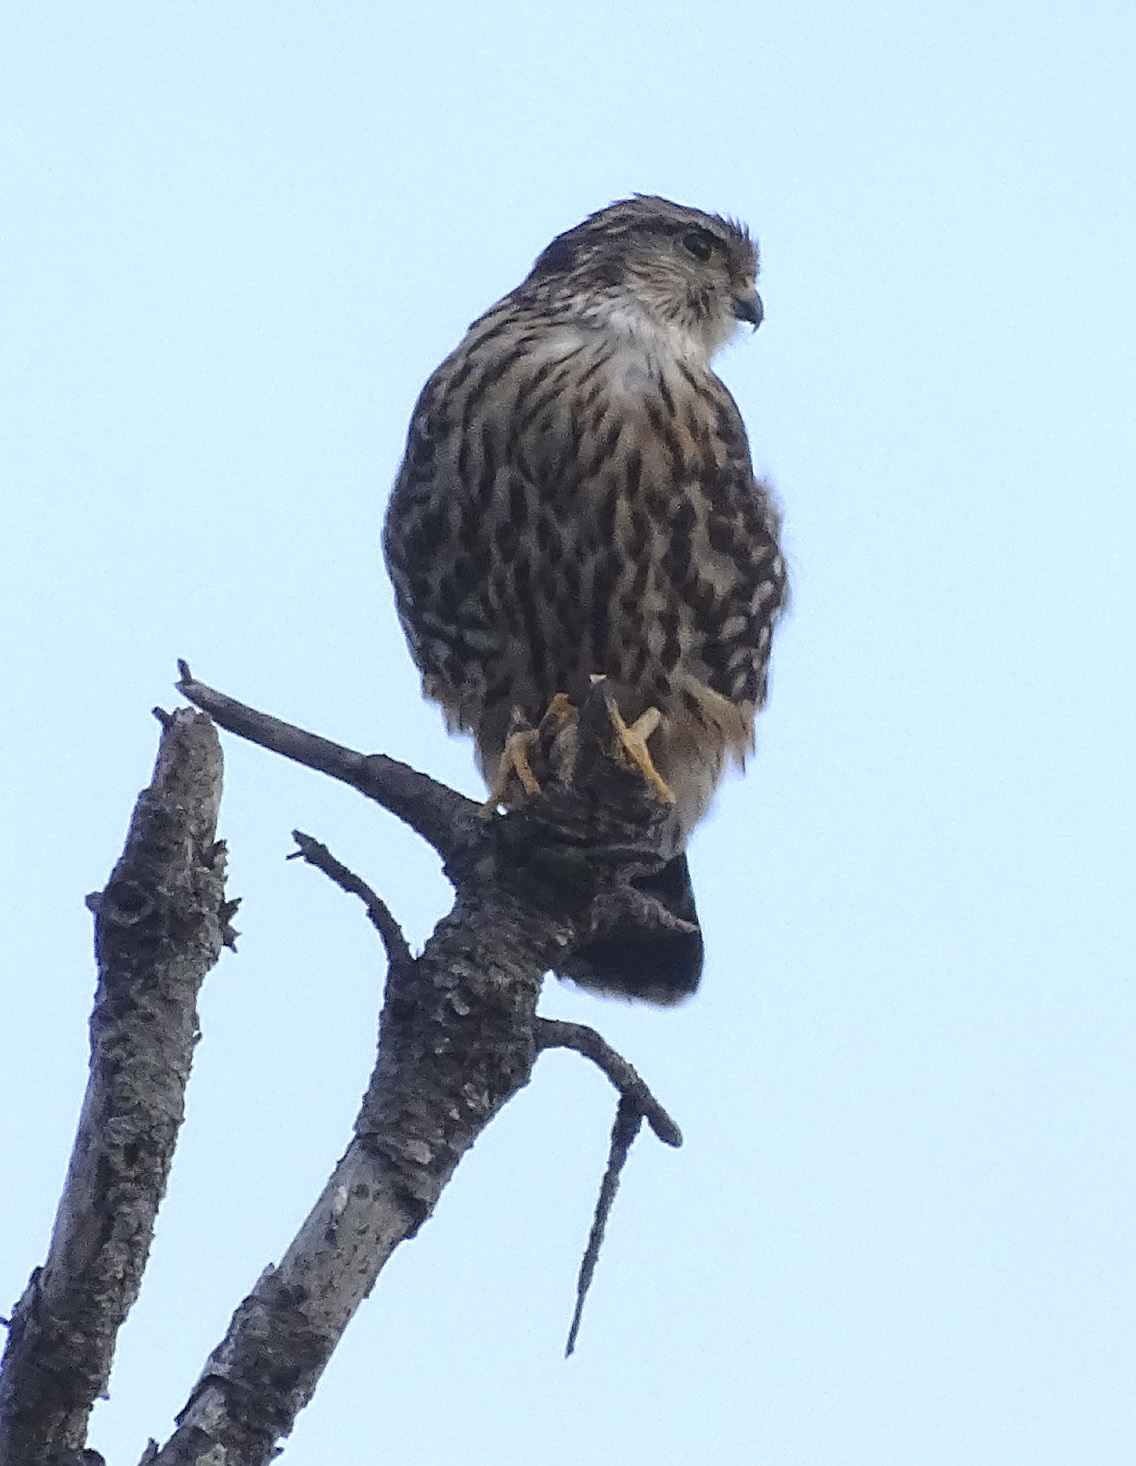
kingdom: Animalia
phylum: Chordata
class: Aves
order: Falconiformes
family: Falconidae
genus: Falco
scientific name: Falco columbarius
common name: Merlin
